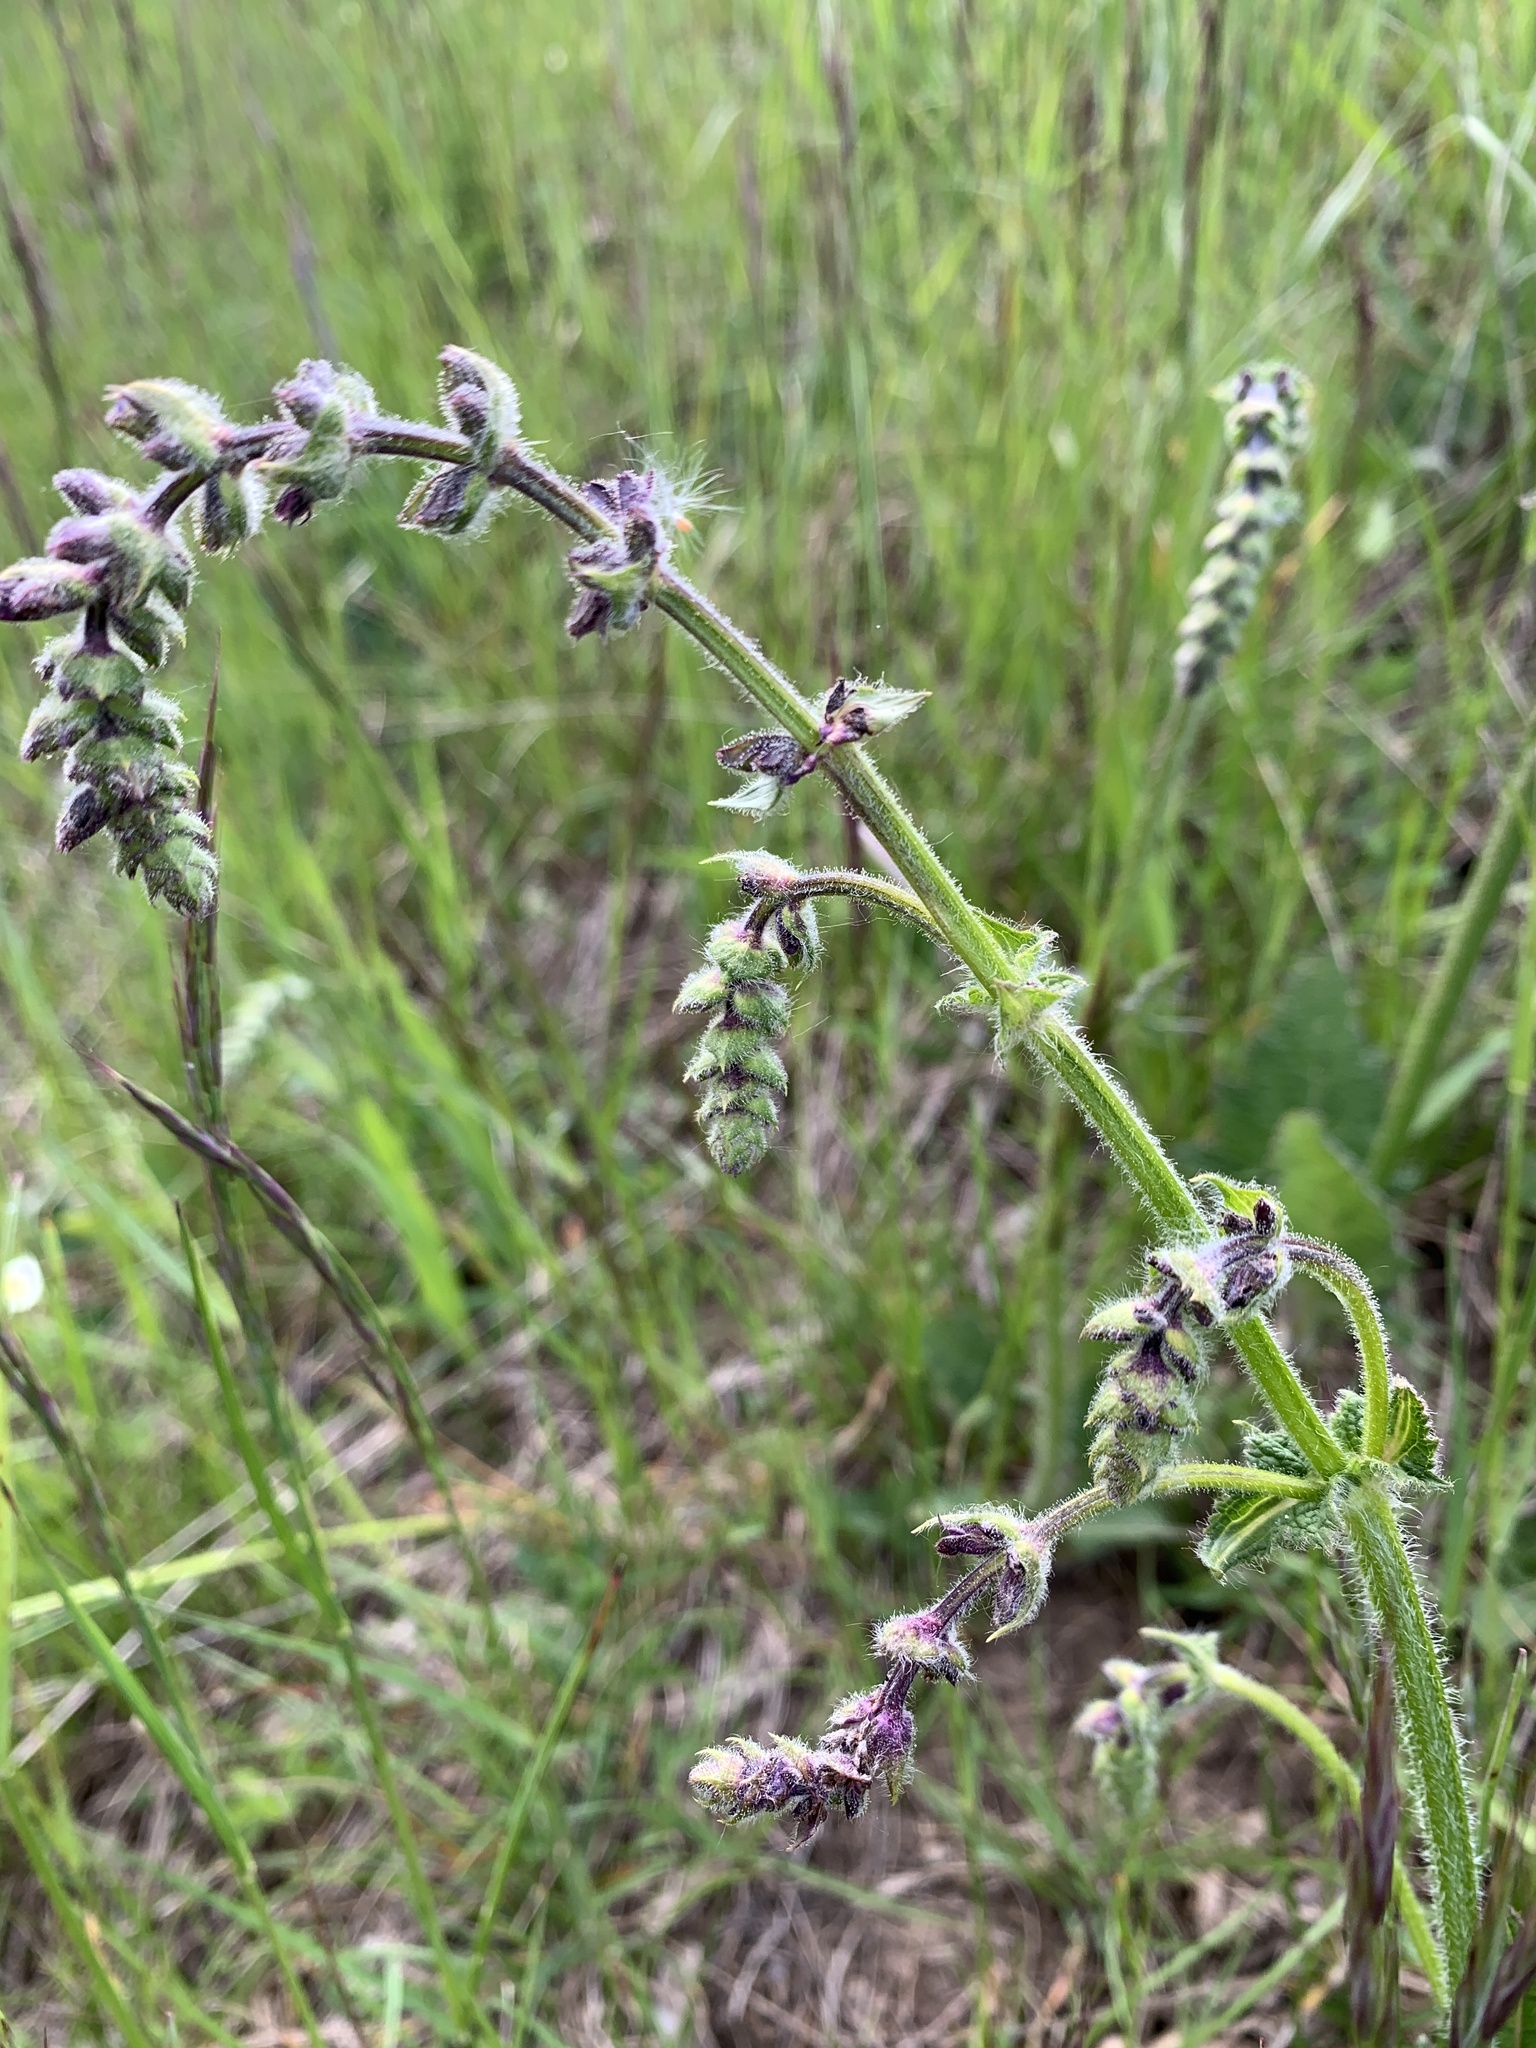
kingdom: Plantae
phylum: Tracheophyta
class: Magnoliopsida
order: Lamiales
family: Lamiaceae
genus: Salvia
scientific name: Salvia pratensis
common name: Meadow sage
